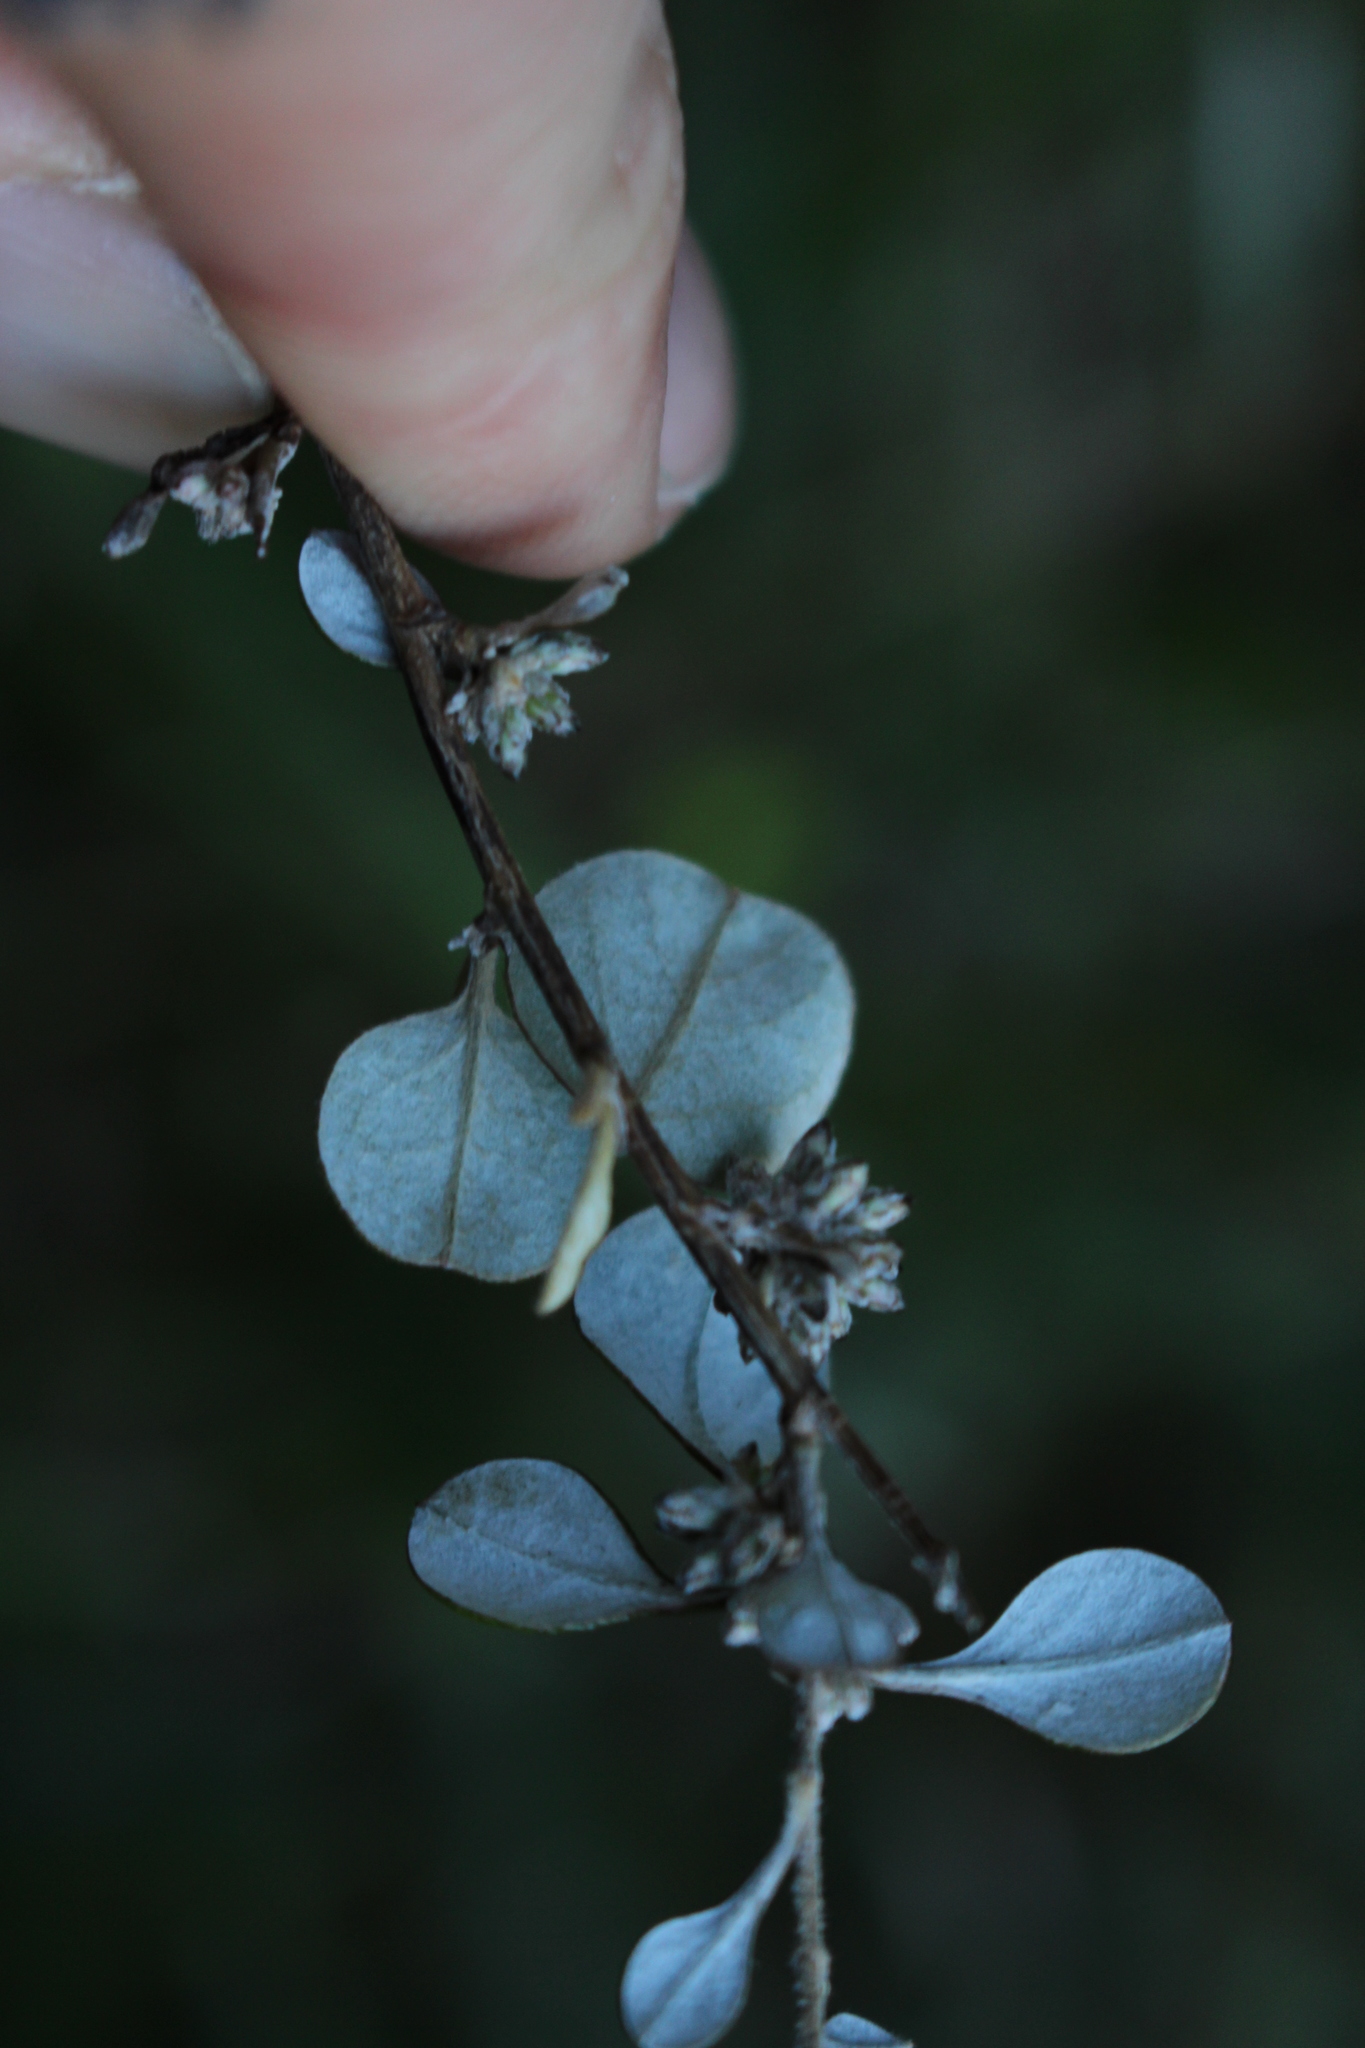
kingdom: Plantae
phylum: Tracheophyta
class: Magnoliopsida
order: Asterales
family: Asteraceae
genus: Ozothamnus
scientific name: Ozothamnus glomeratus
